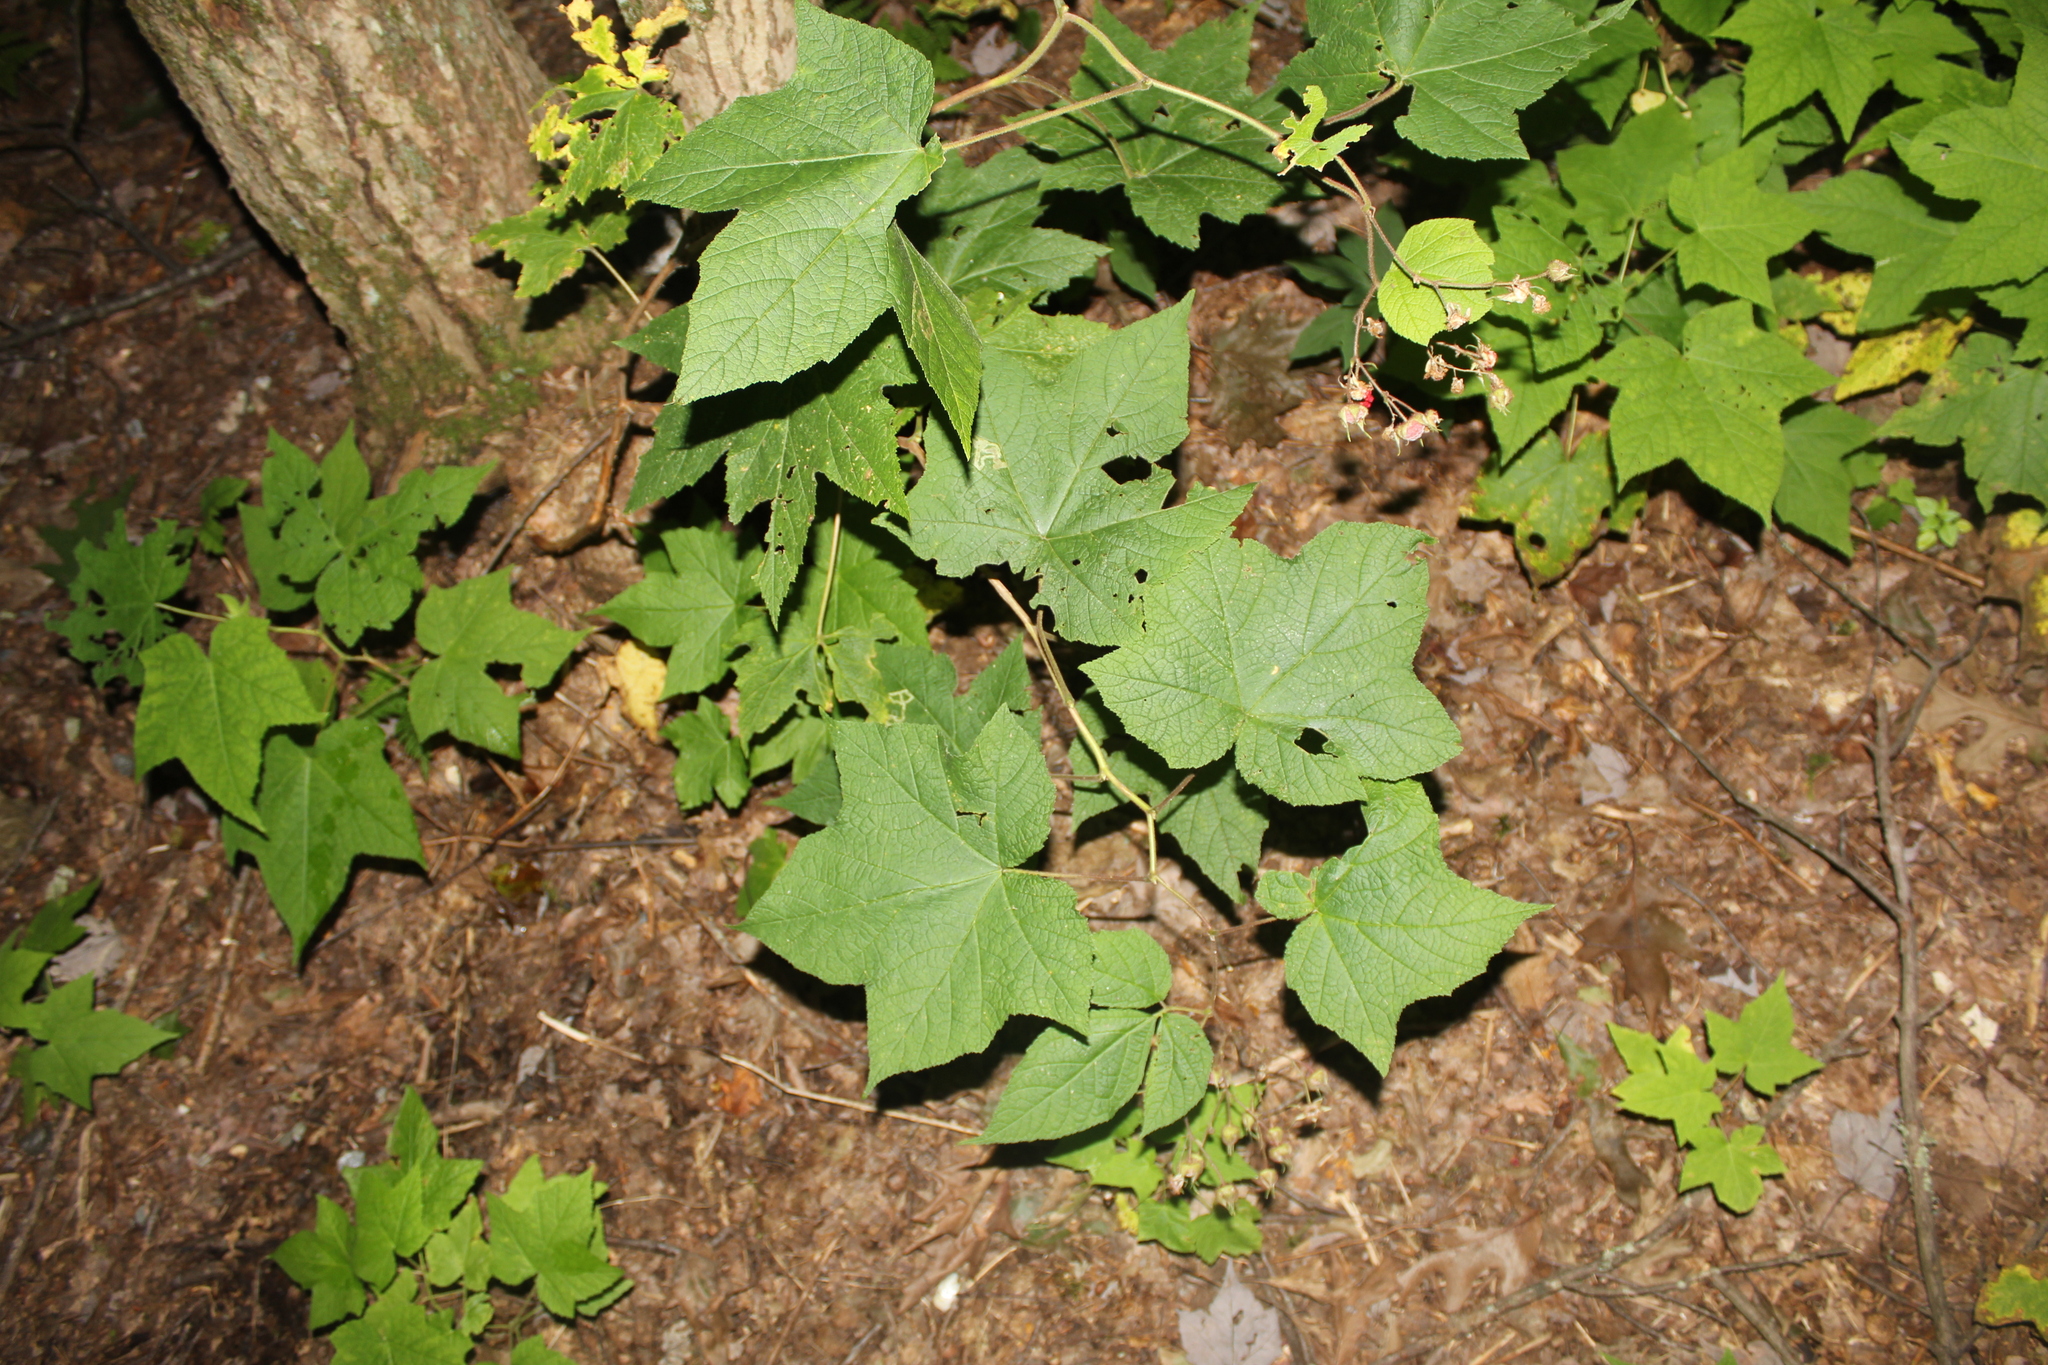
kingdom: Plantae
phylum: Tracheophyta
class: Magnoliopsida
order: Rosales
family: Rosaceae
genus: Rubus
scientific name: Rubus odoratus
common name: Purple-flowered raspberry
